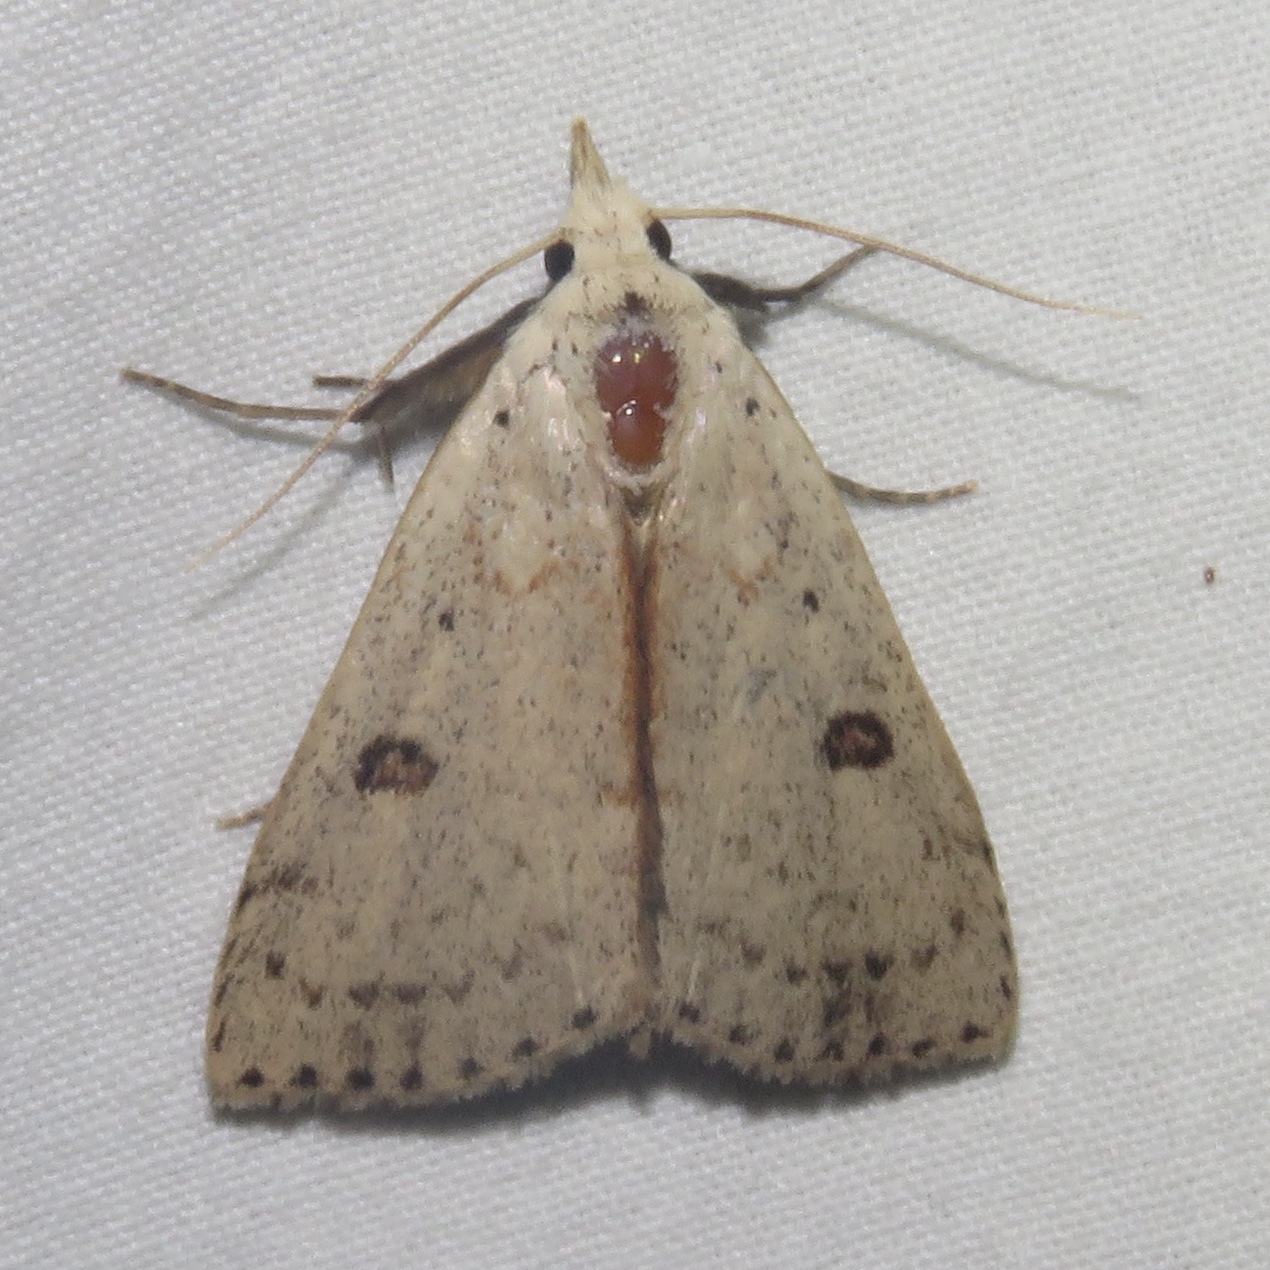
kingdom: Animalia
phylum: Arthropoda
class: Insecta
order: Lepidoptera
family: Erebidae
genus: Scolecocampa
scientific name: Scolecocampa liburna
